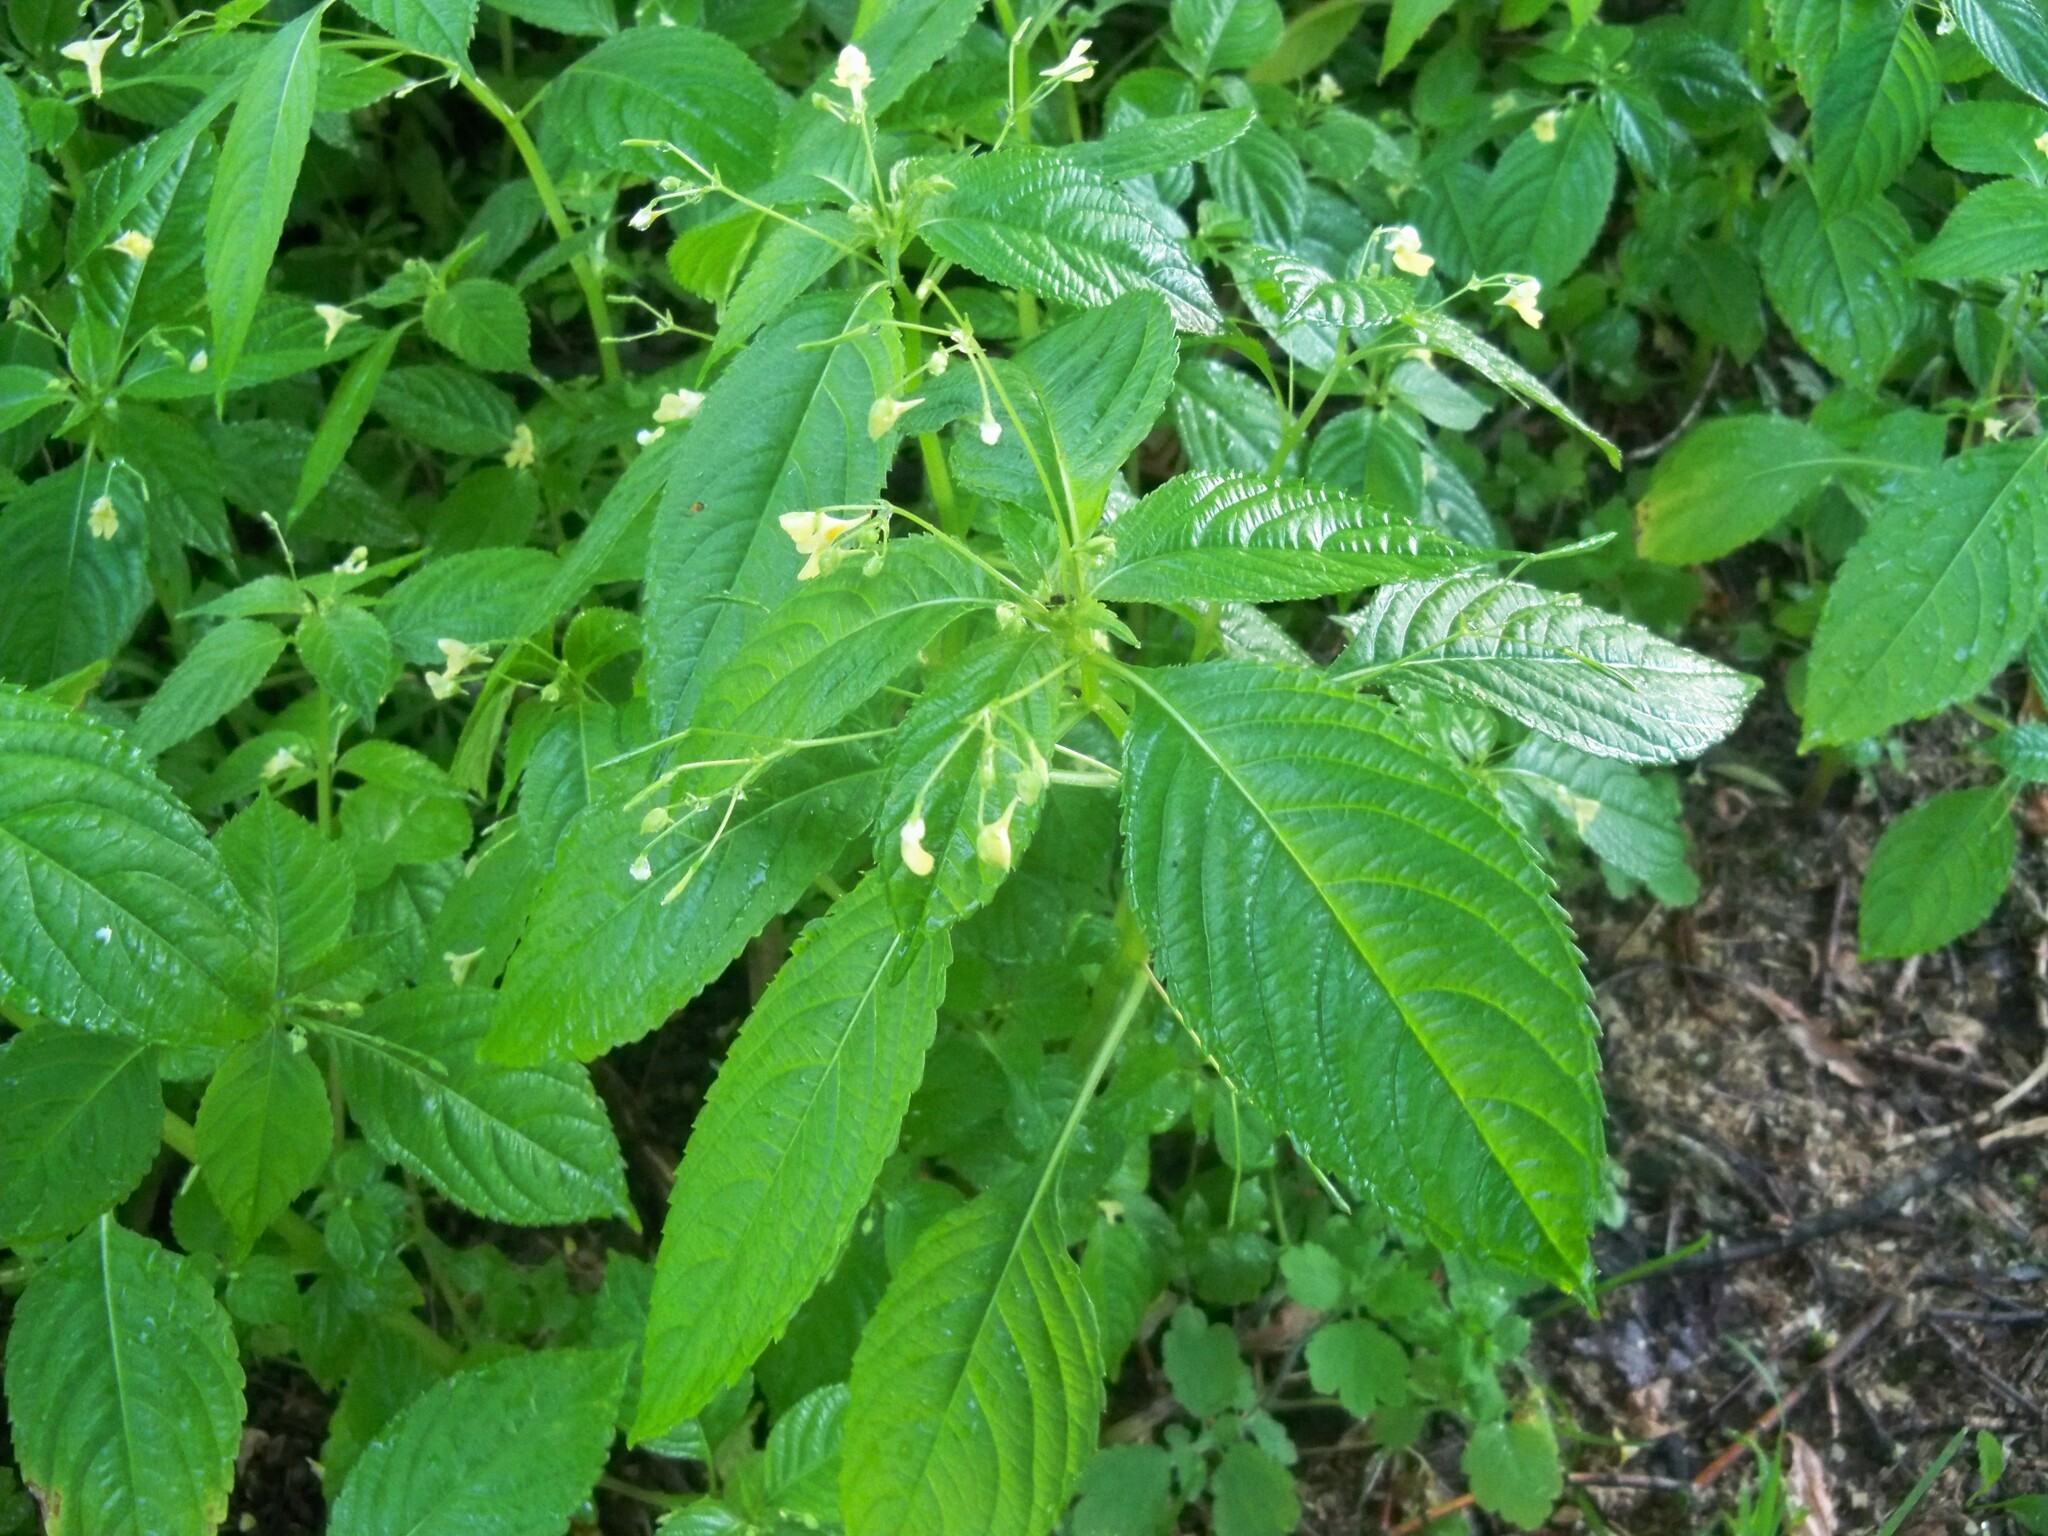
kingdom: Plantae
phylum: Tracheophyta
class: Magnoliopsida
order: Ericales
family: Balsaminaceae
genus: Impatiens
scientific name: Impatiens parviflora
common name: Small balsam
